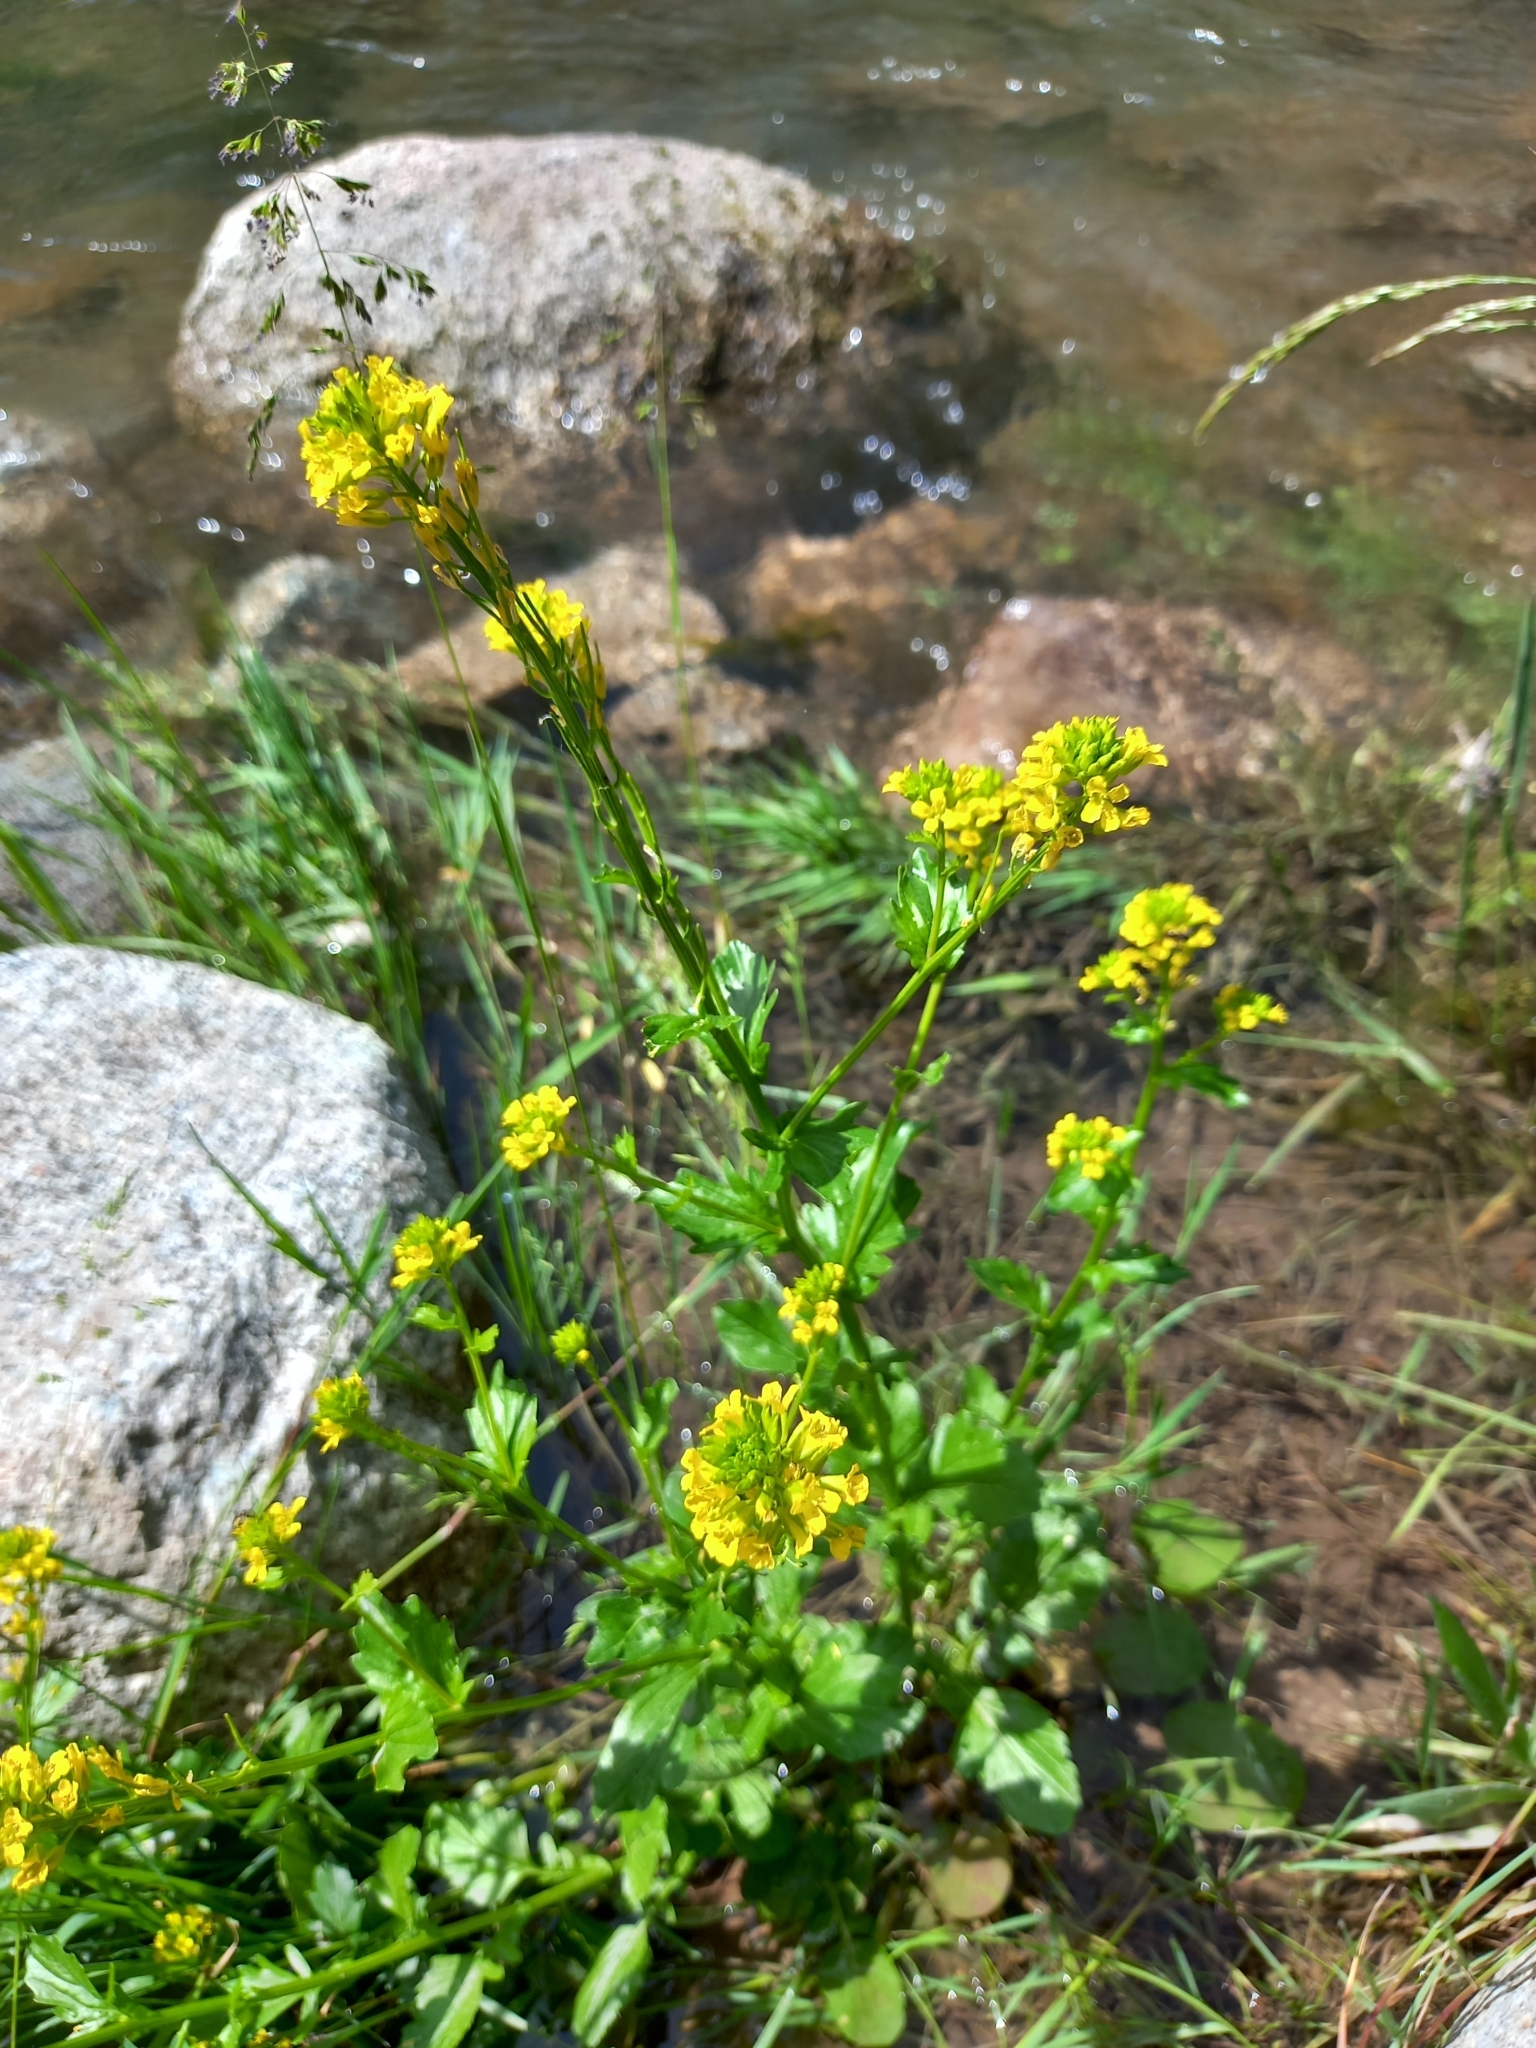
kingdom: Plantae
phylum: Tracheophyta
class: Magnoliopsida
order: Brassicales
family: Brassicaceae
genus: Barbarea
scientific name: Barbarea vulgaris
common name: Cressy-greens
